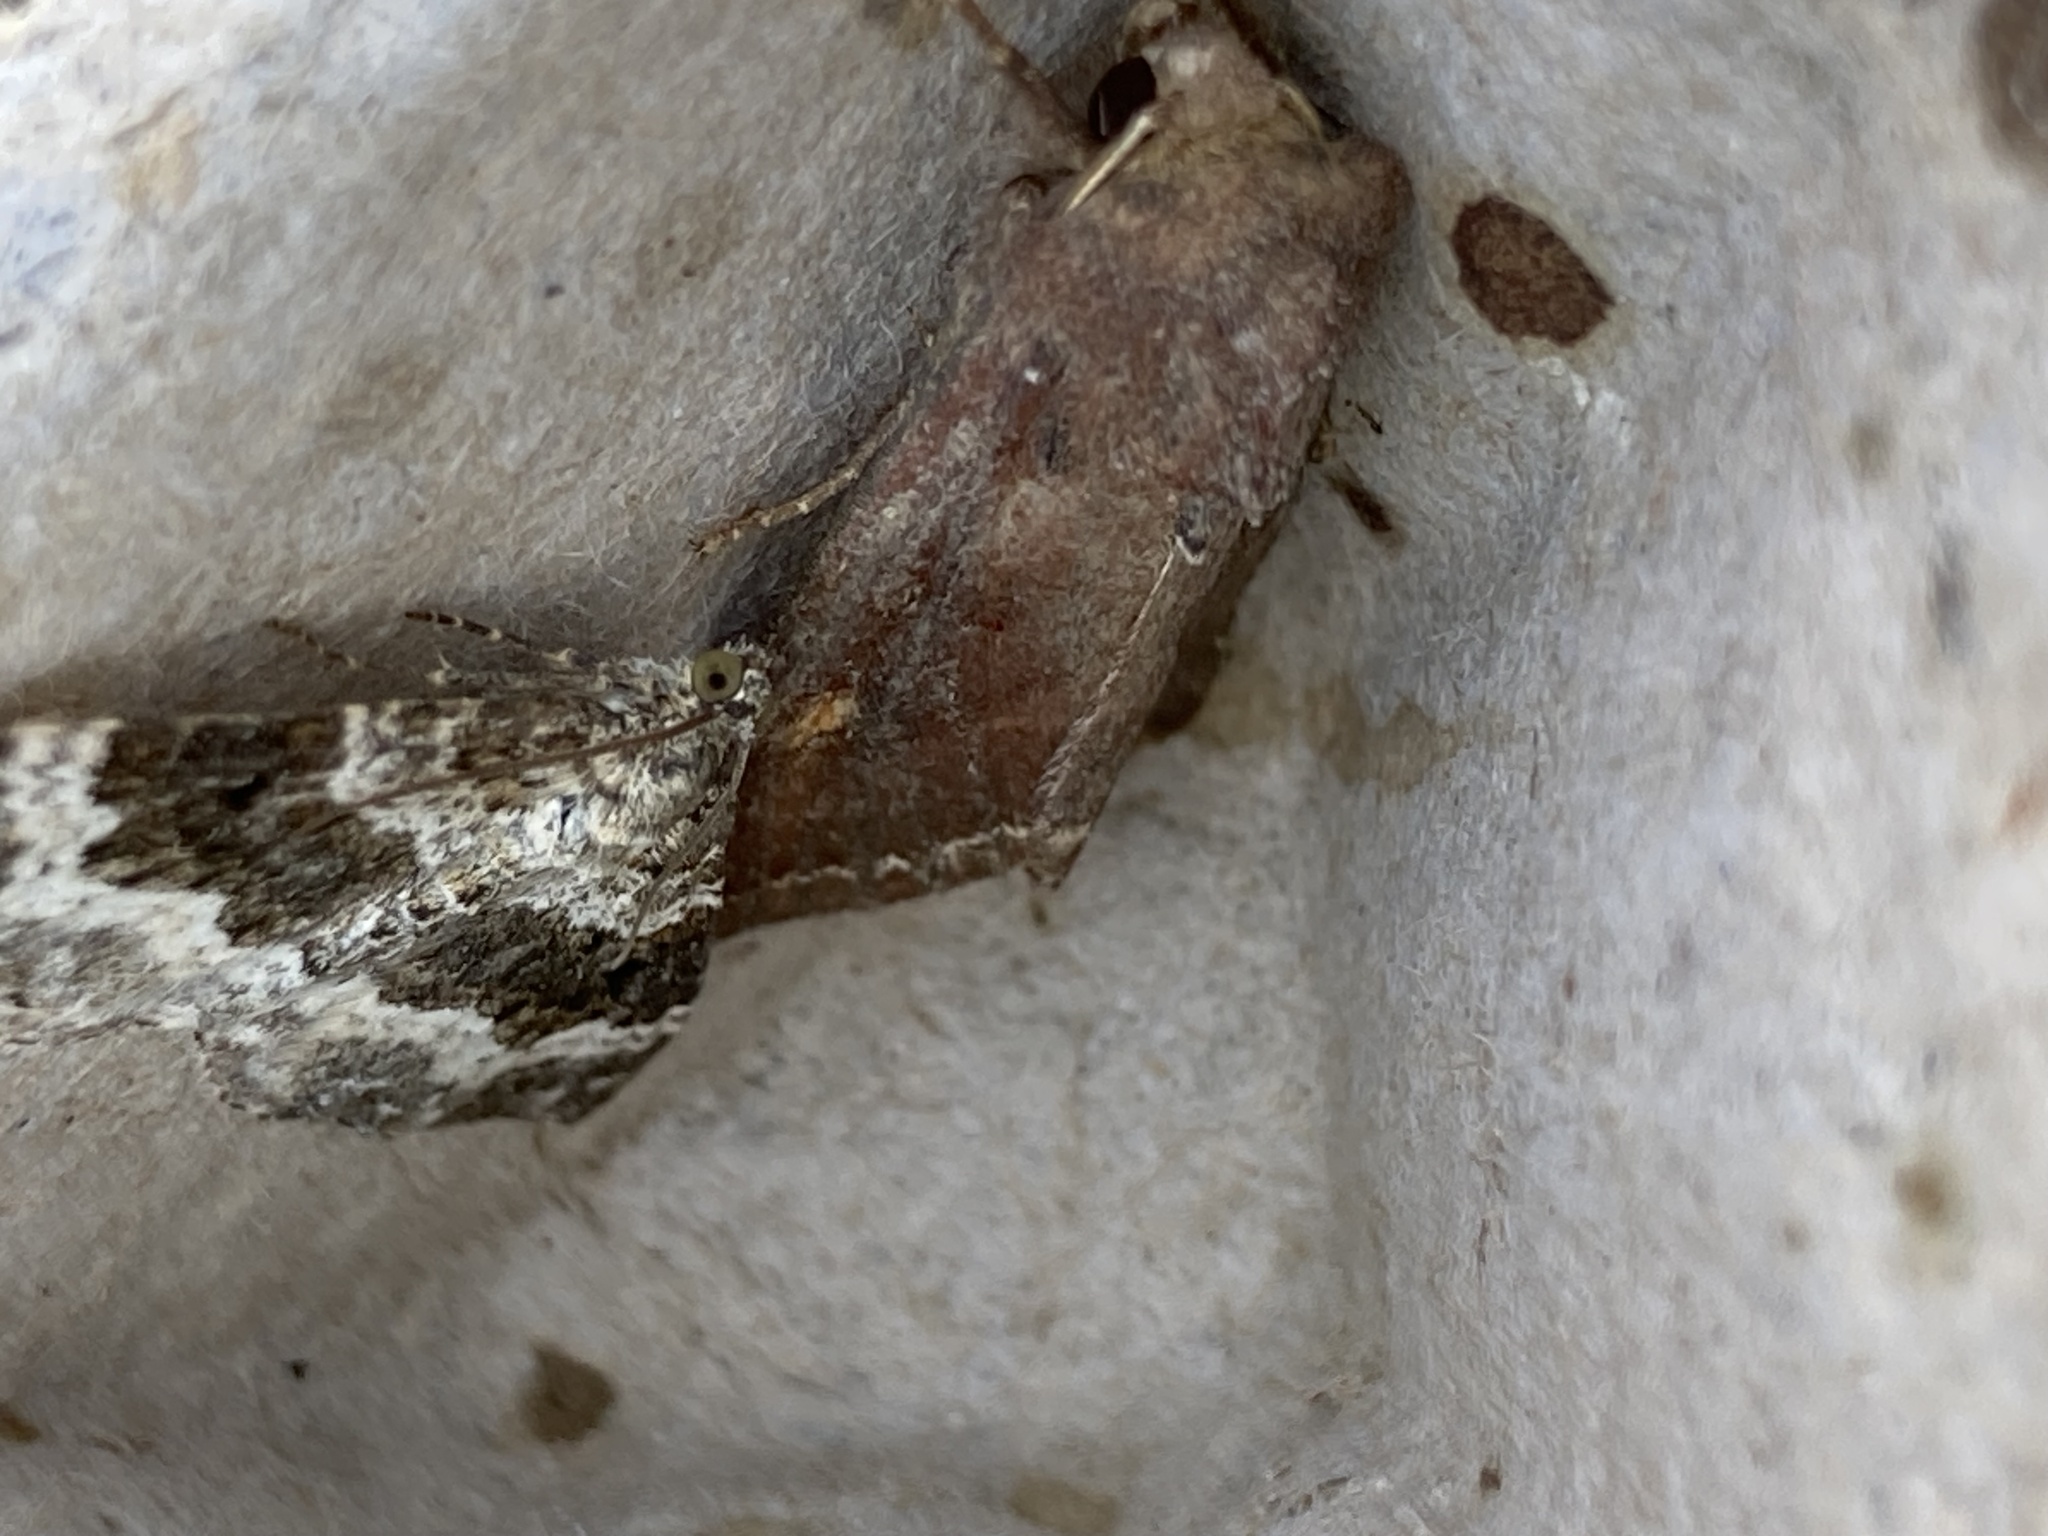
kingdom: Animalia
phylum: Arthropoda
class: Insecta
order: Lepidoptera
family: Noctuidae
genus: Lacanobia
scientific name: Lacanobia oleracea
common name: Bright-line brown-eye
